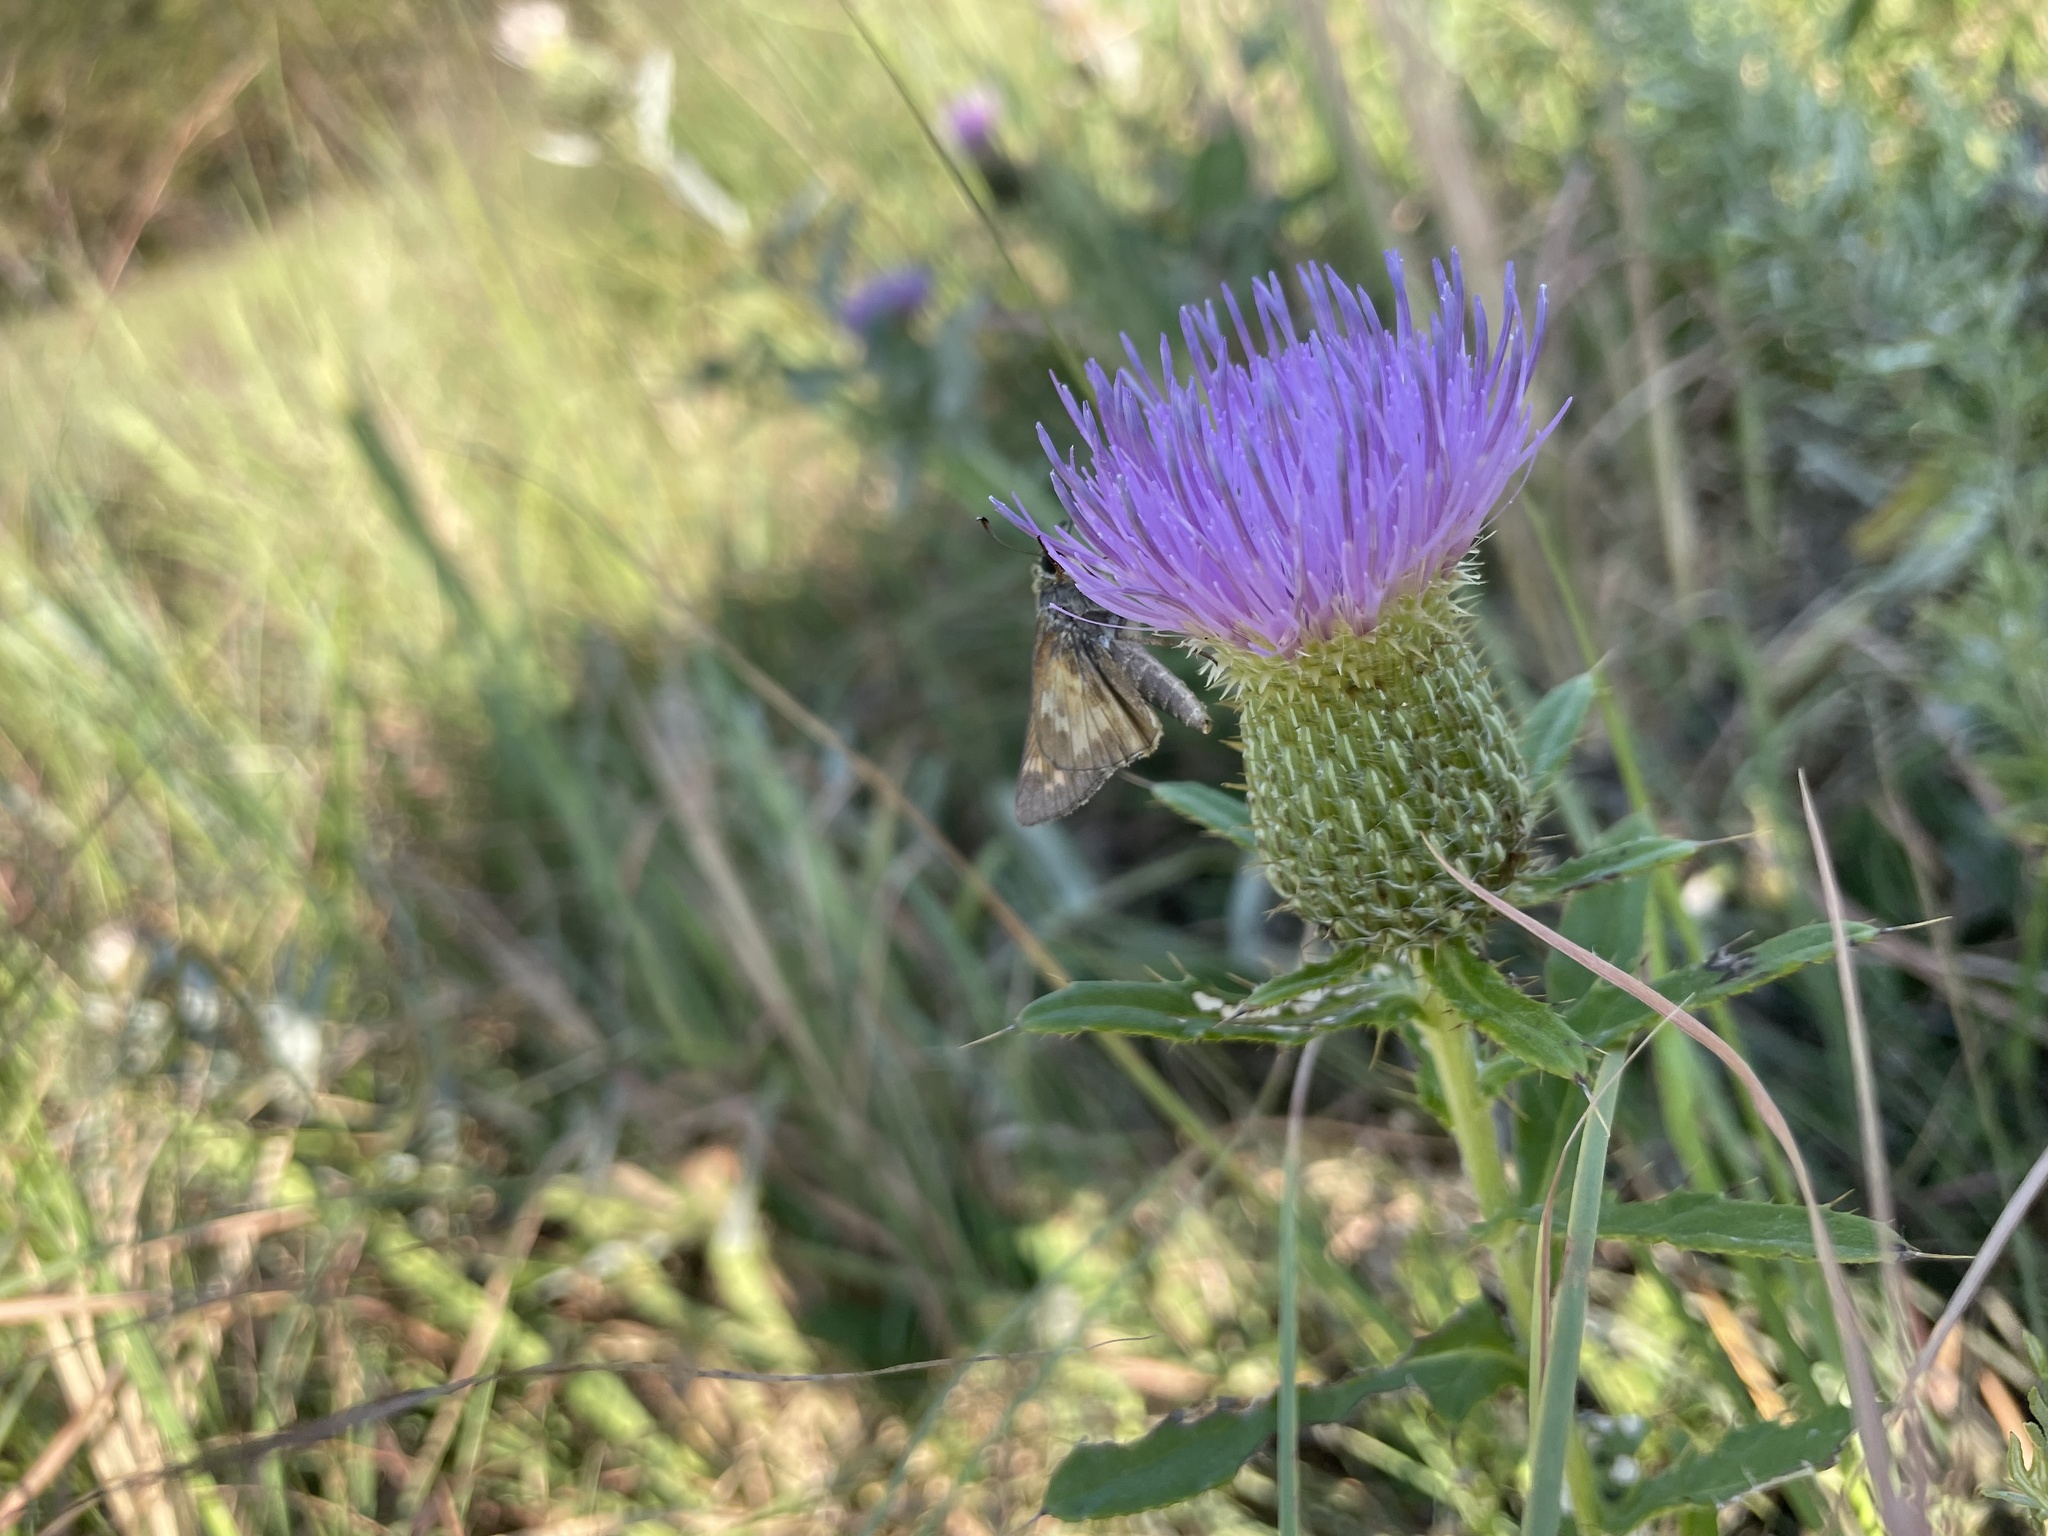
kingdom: Animalia
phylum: Arthropoda
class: Insecta
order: Lepidoptera
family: Hesperiidae
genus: Atalopedes
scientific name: Atalopedes
